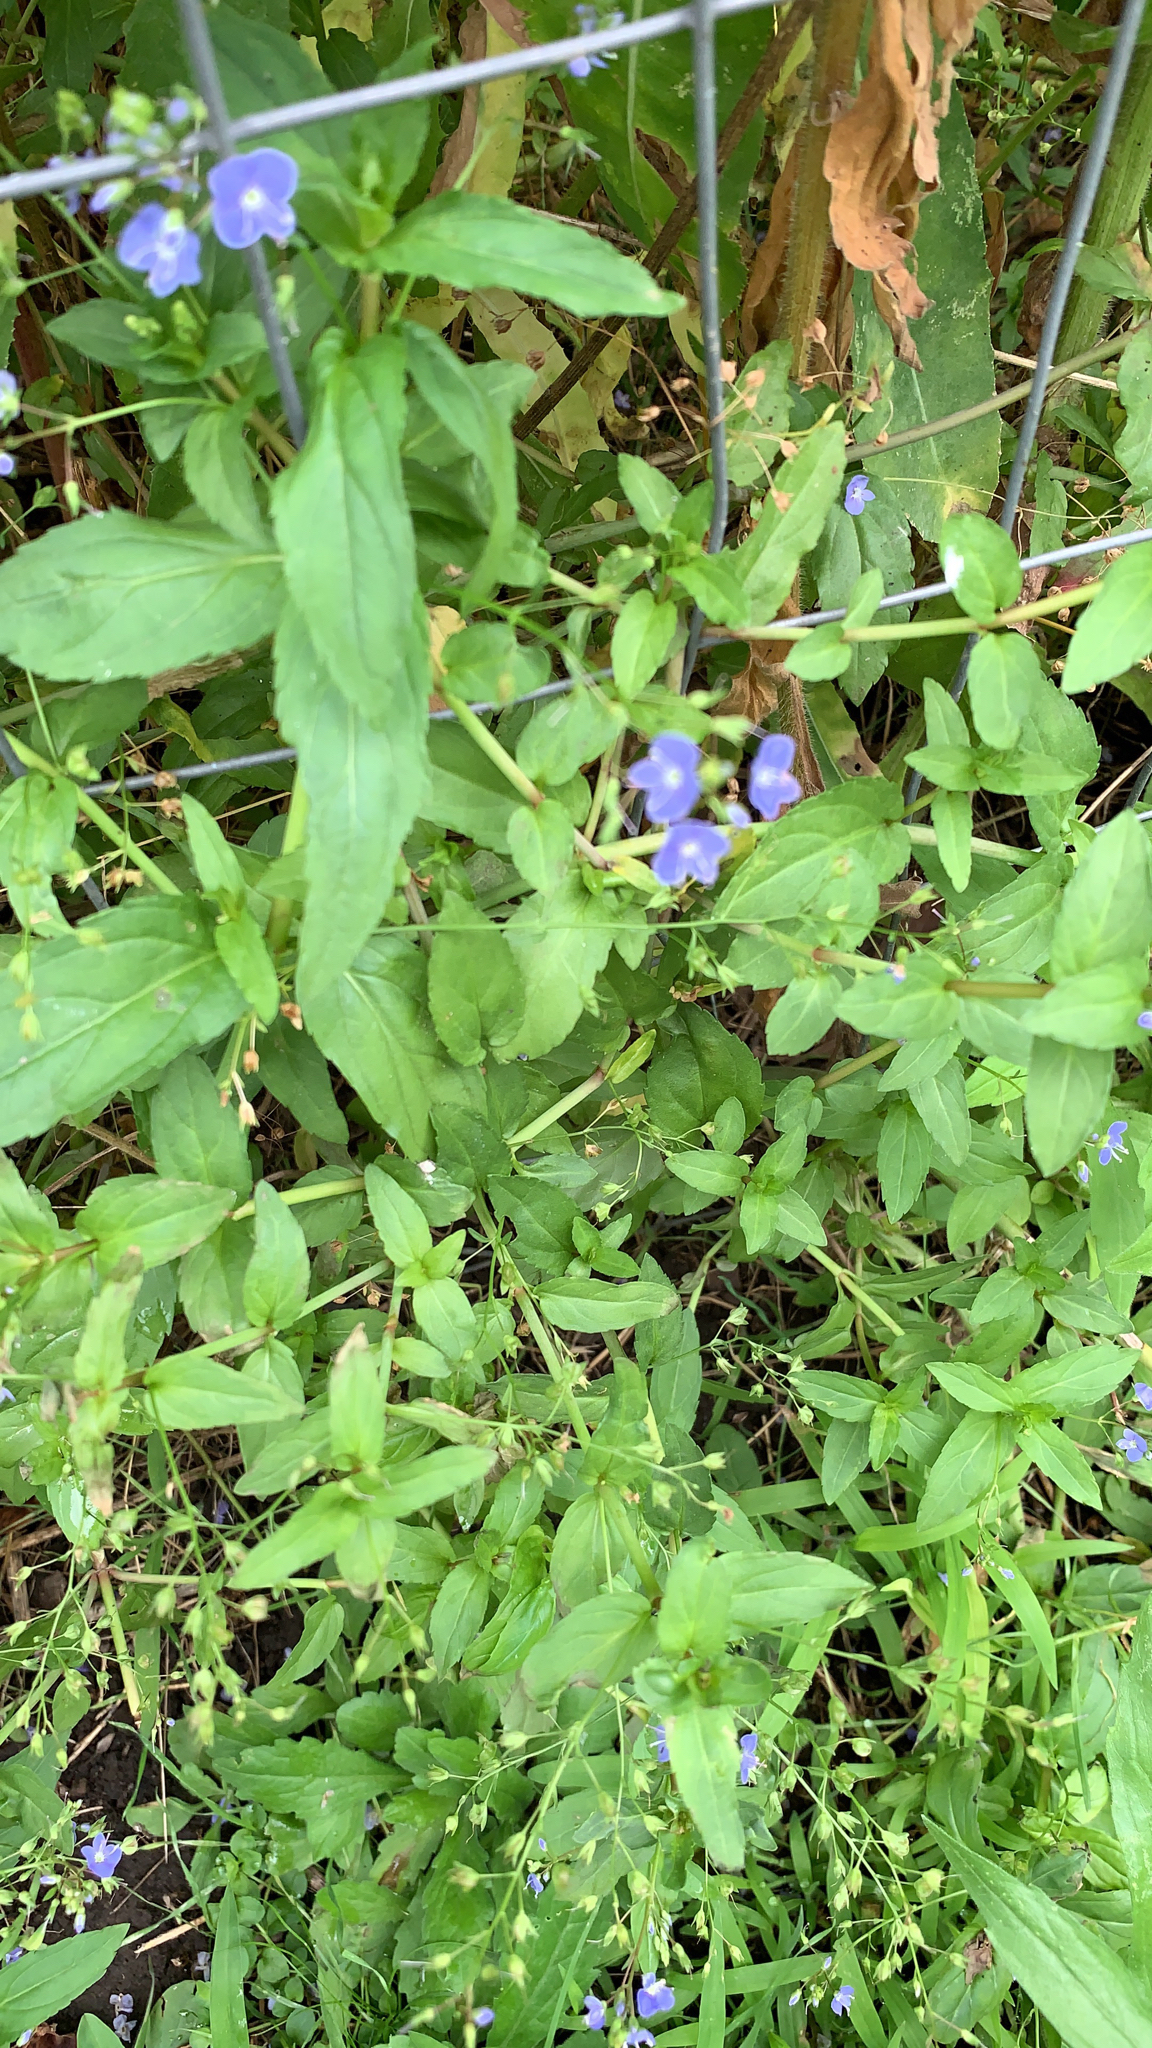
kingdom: Plantae
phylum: Tracheophyta
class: Magnoliopsida
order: Lamiales
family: Plantaginaceae
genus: Veronica
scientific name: Veronica americana
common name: American brooklime
